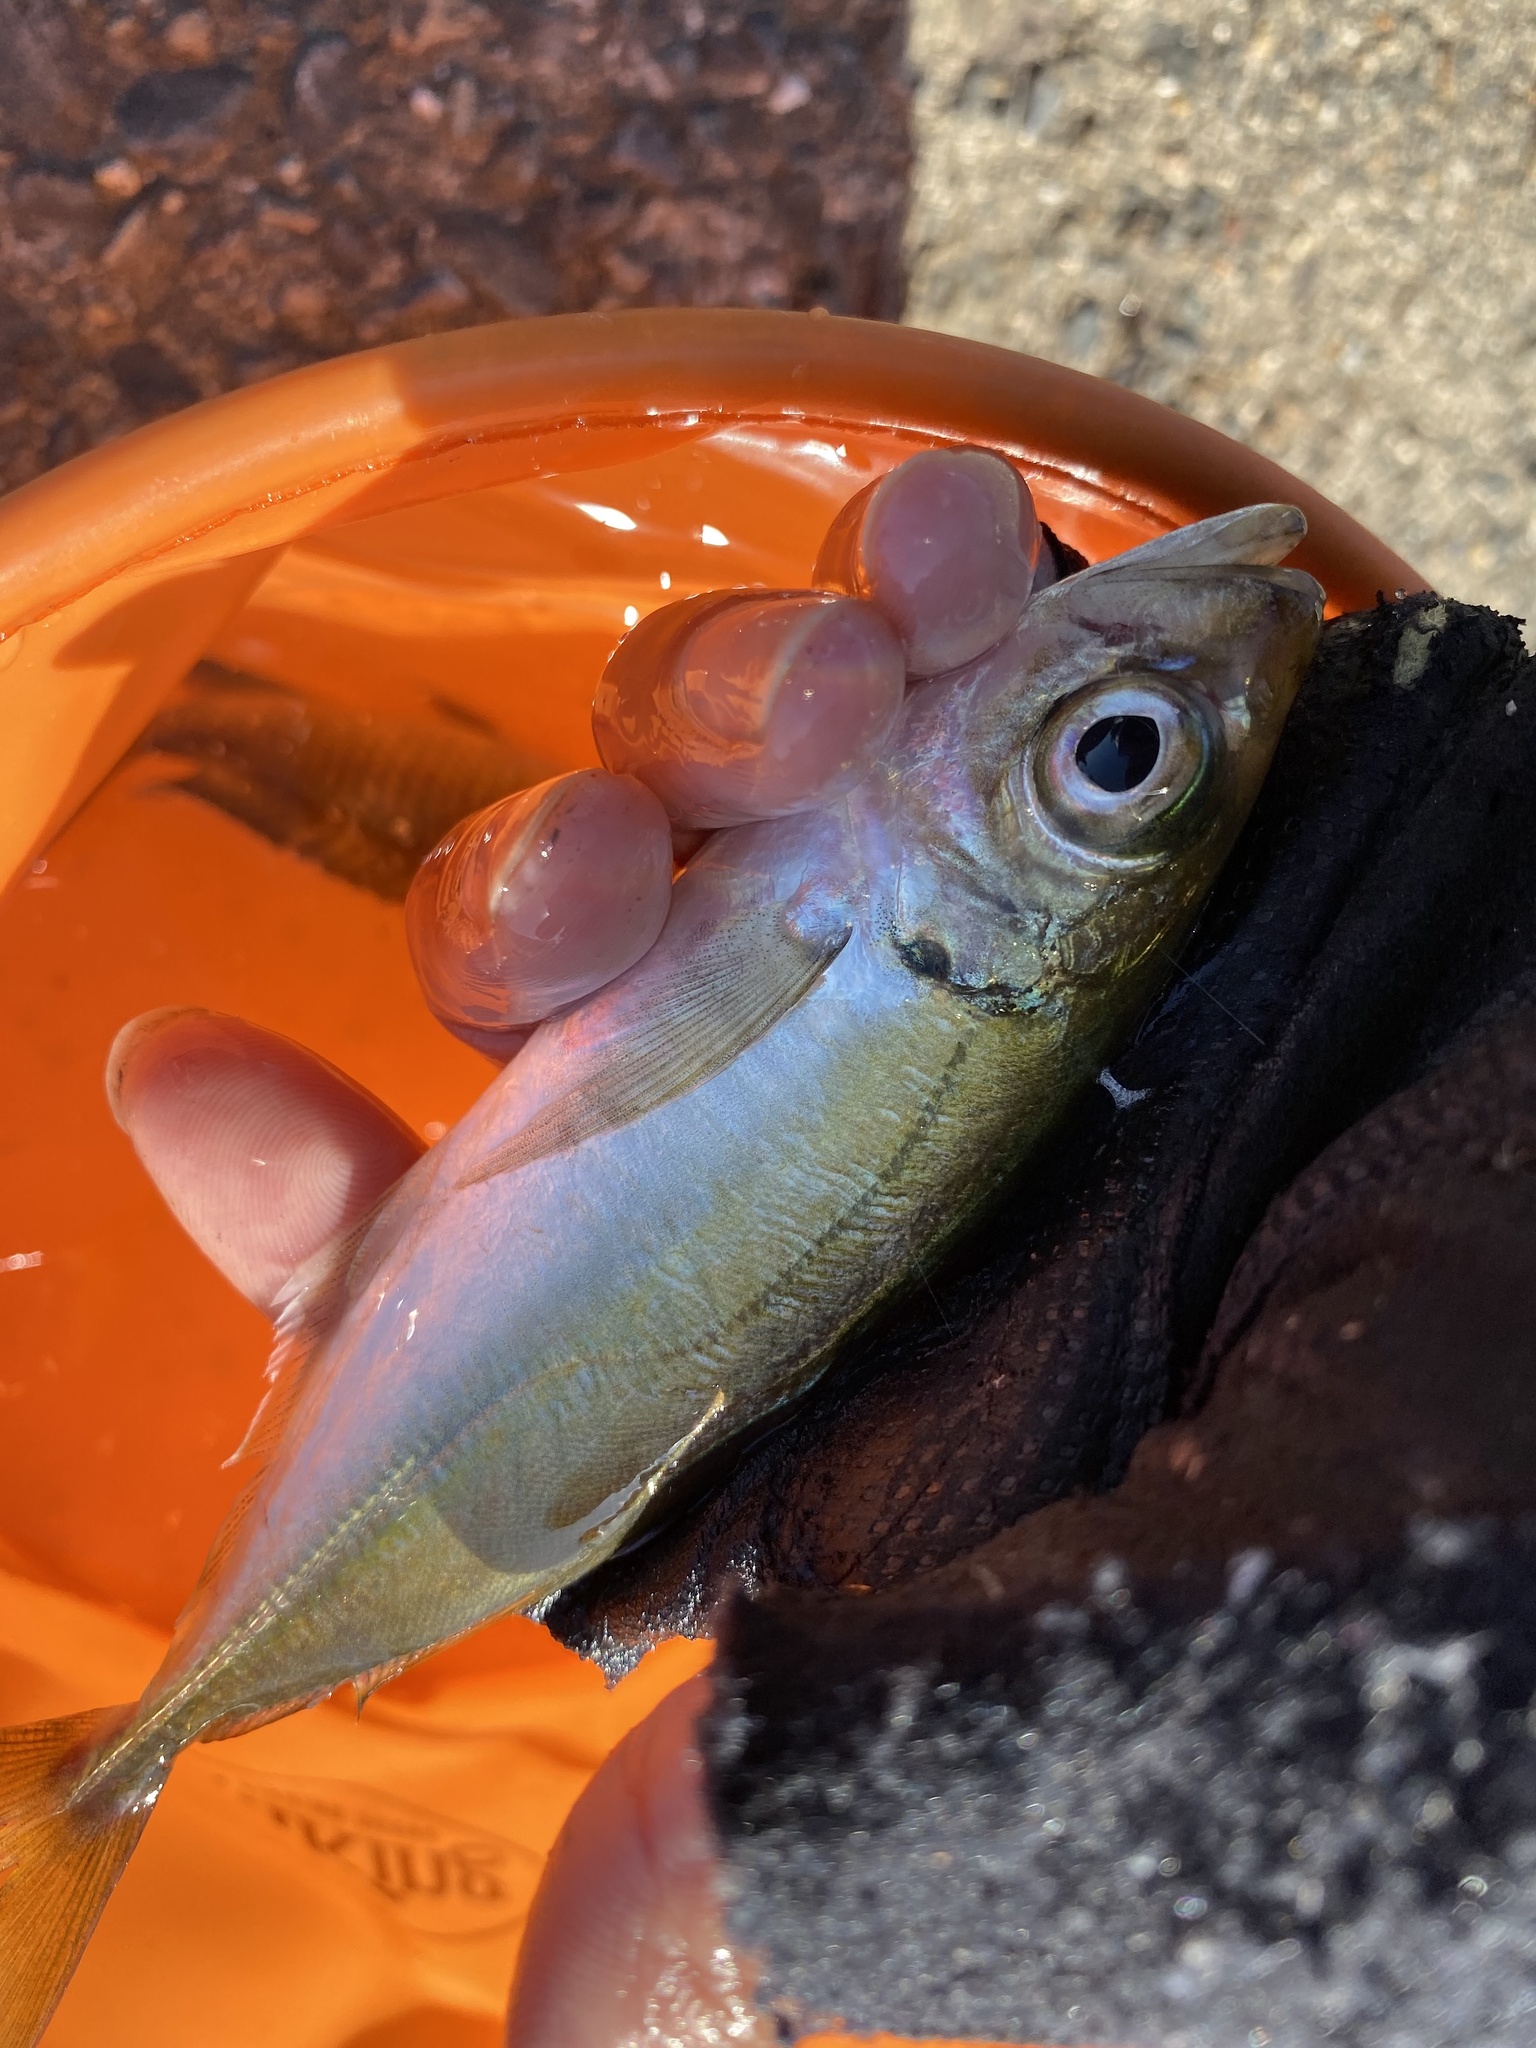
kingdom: Animalia
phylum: Chordata
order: Perciformes
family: Carangidae
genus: Trachurus
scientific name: Trachurus japonicus
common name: Japanese jack mackerel
